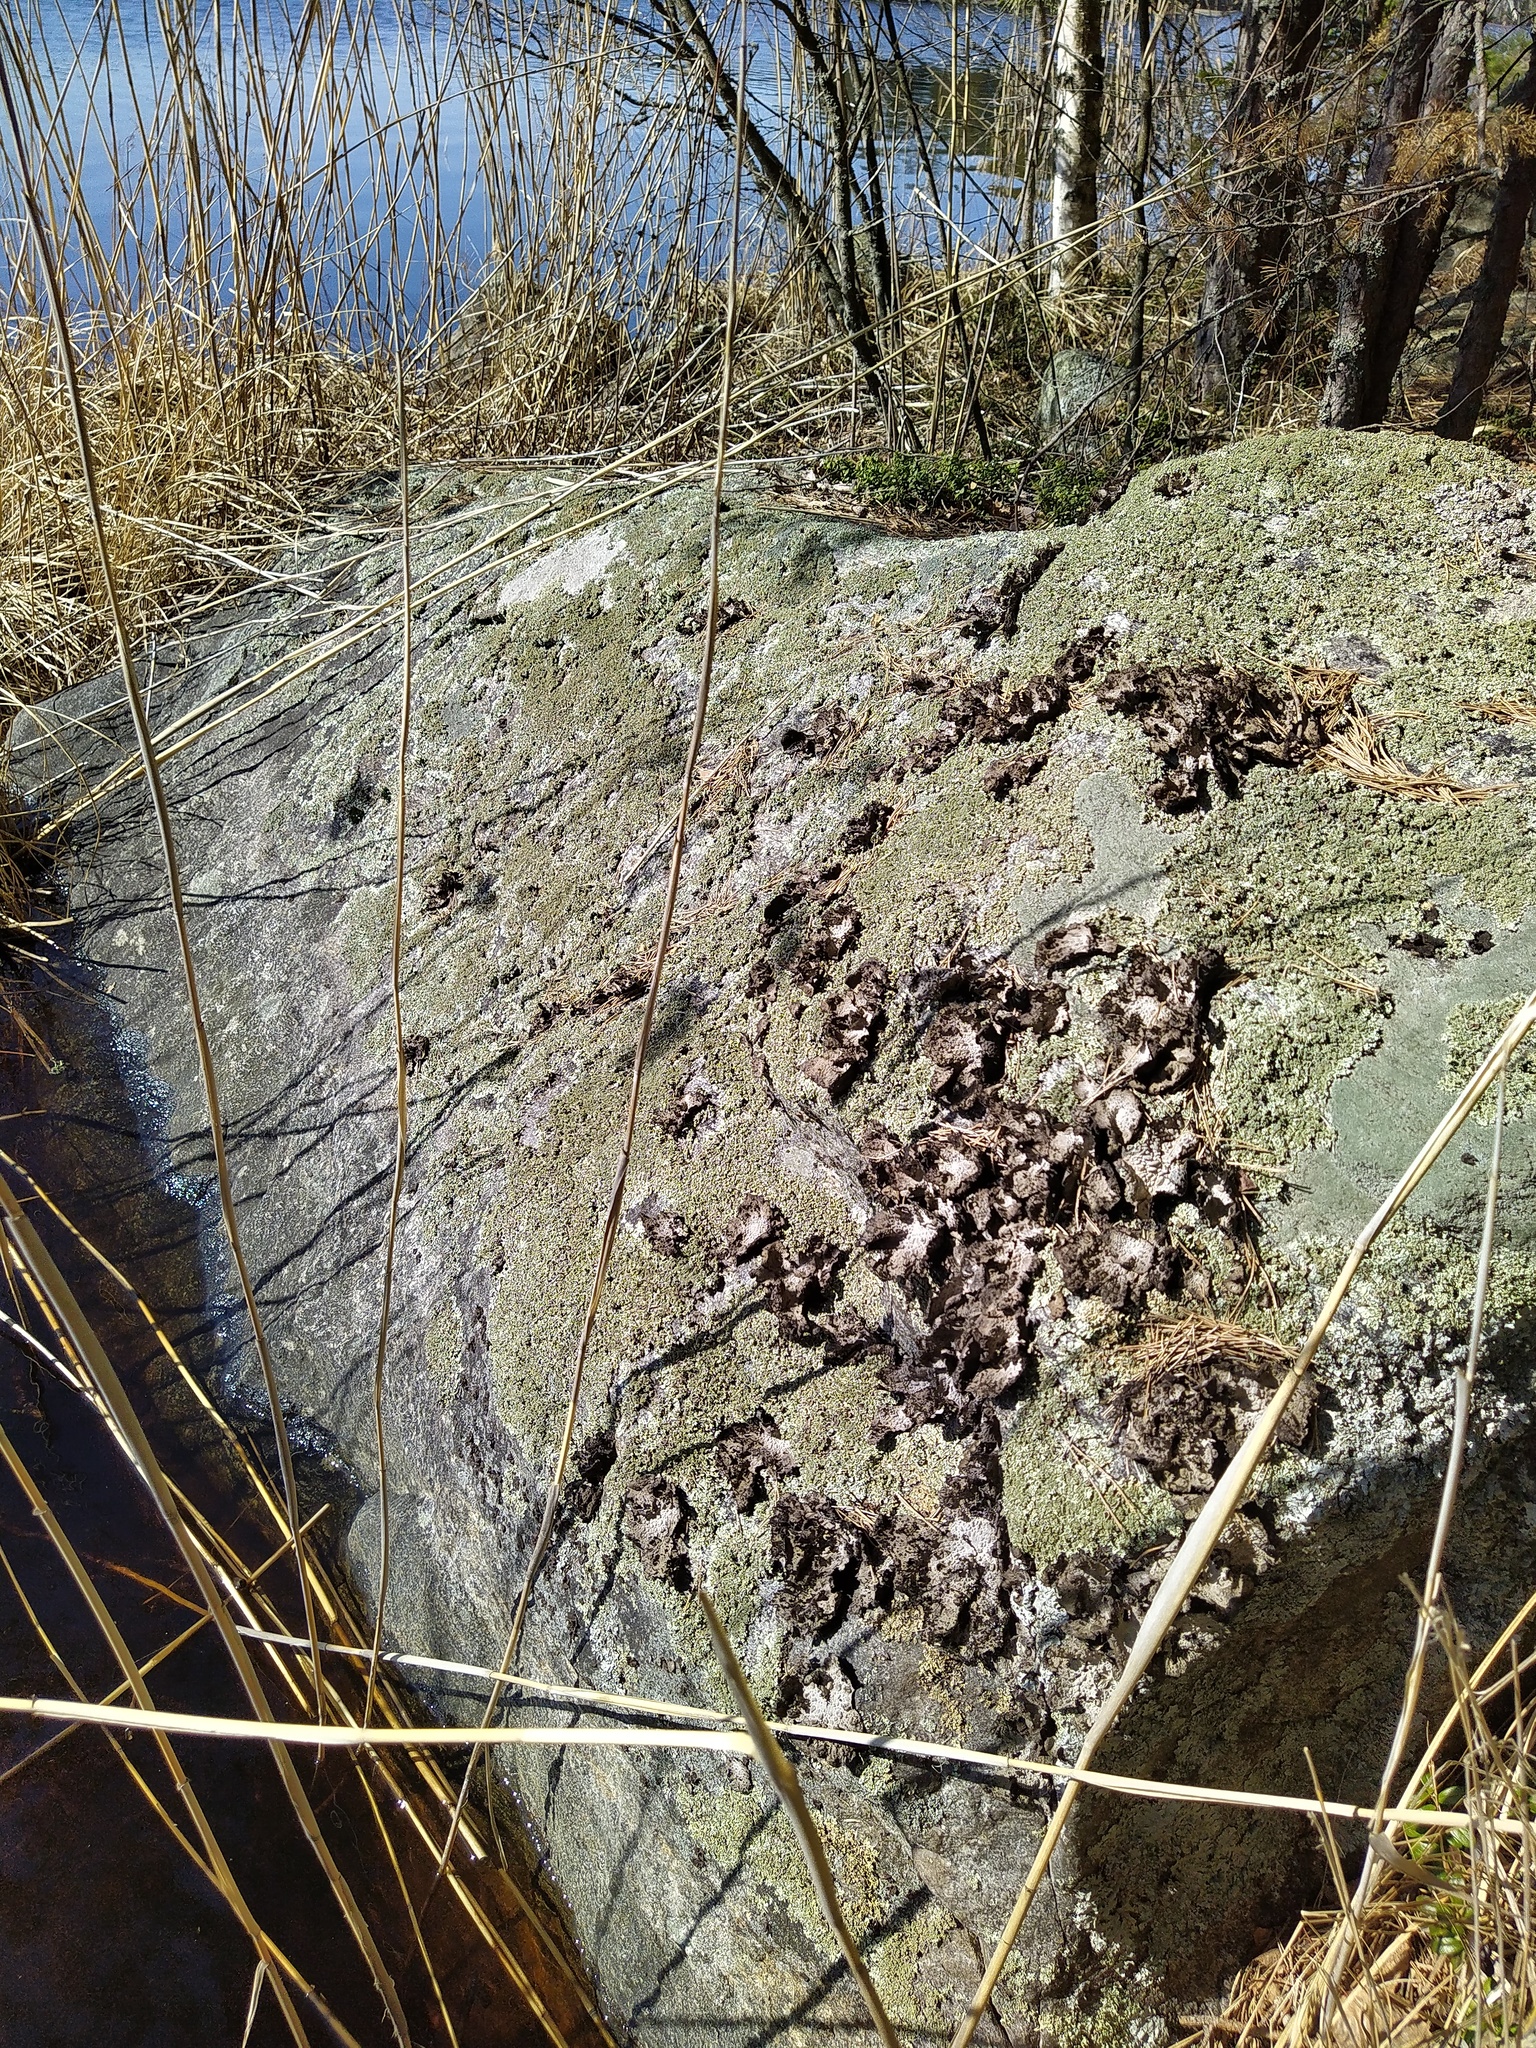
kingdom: Fungi
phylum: Ascomycota
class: Lecanoromycetes
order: Umbilicariales
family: Umbilicariaceae
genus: Lasallia
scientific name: Lasallia pustulata
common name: Blistered toadskin lichen
